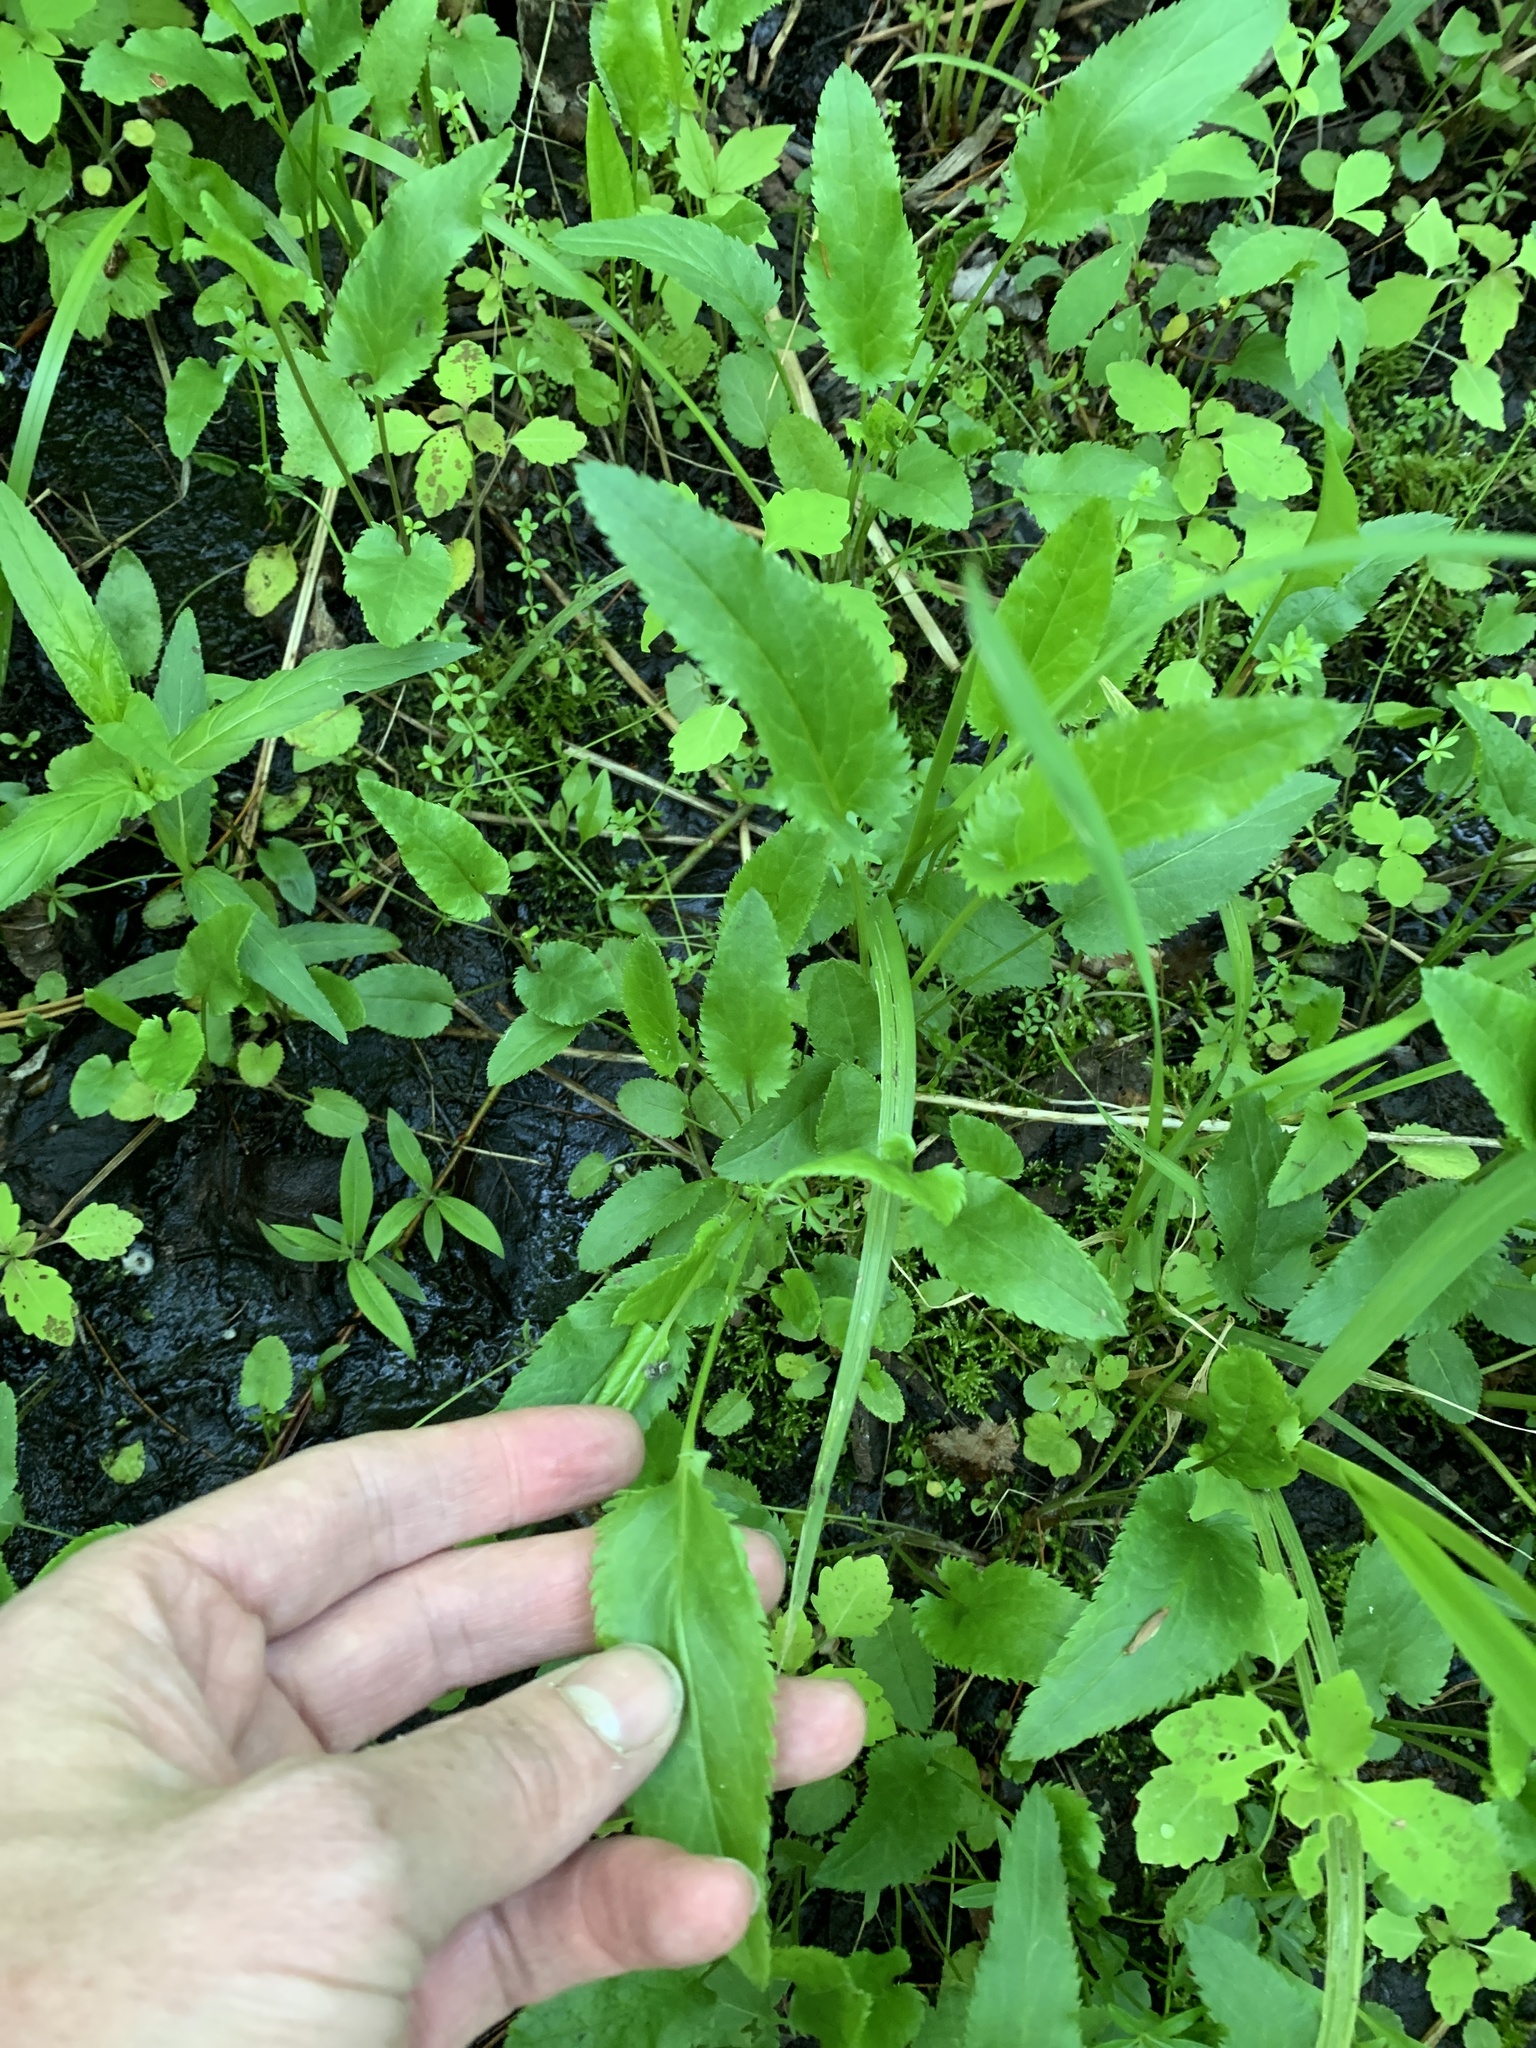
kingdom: Plantae
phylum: Tracheophyta
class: Magnoliopsida
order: Asterales
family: Asteraceae
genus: Packera
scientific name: Packera schweinitziana
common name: Schweinitz's ragwort
